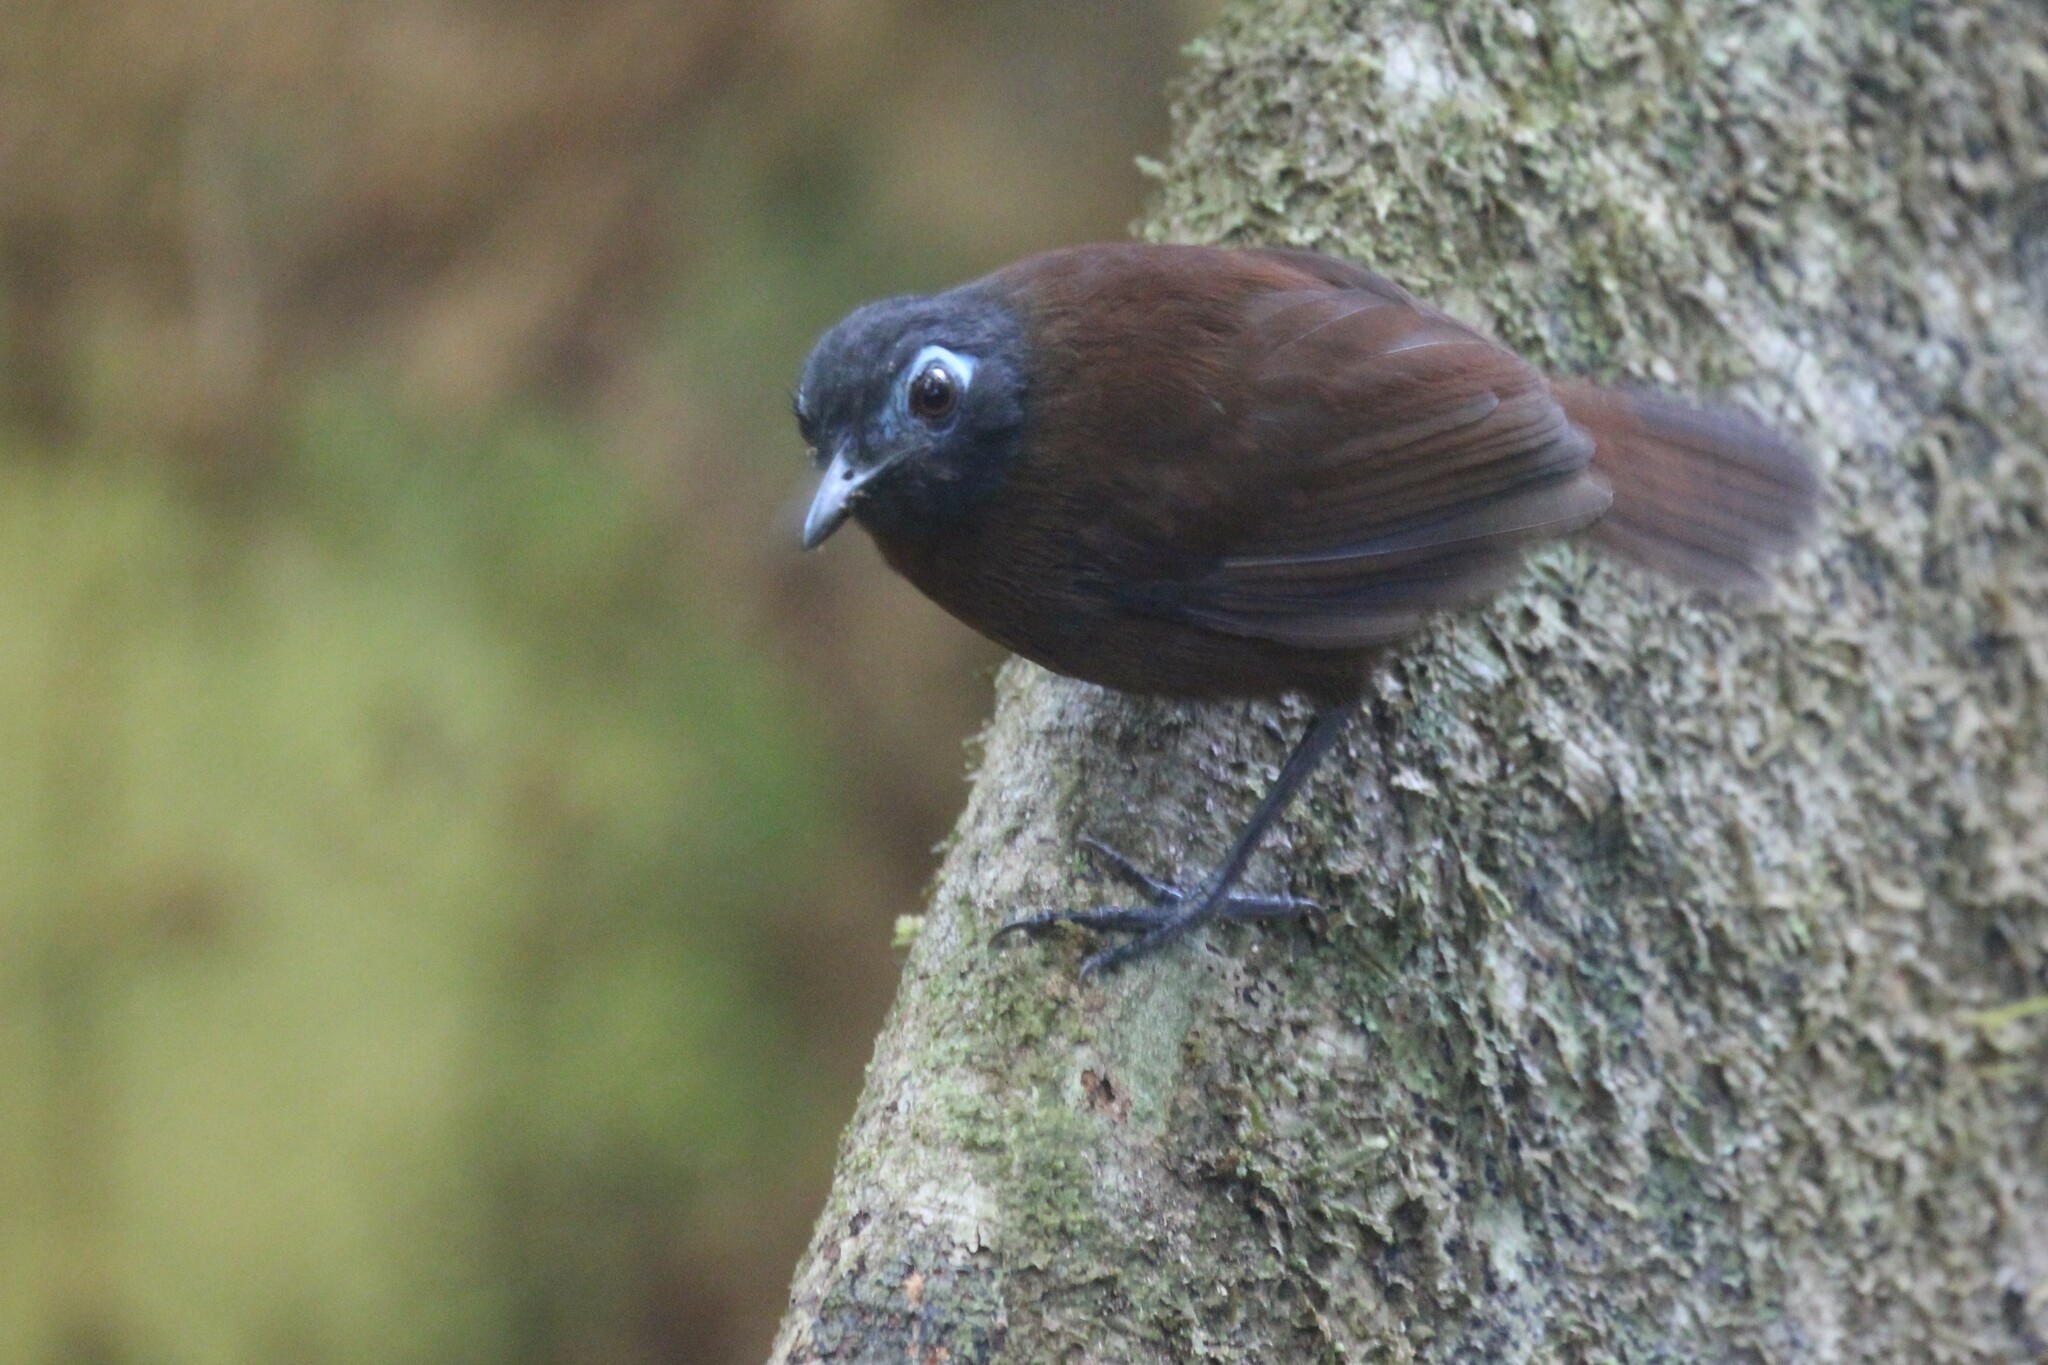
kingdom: Animalia
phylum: Chordata
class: Aves
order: Passeriformes
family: Thamnophilidae
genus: Myrmeciza
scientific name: Myrmeciza exsul
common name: Chestnut-backed antbird
